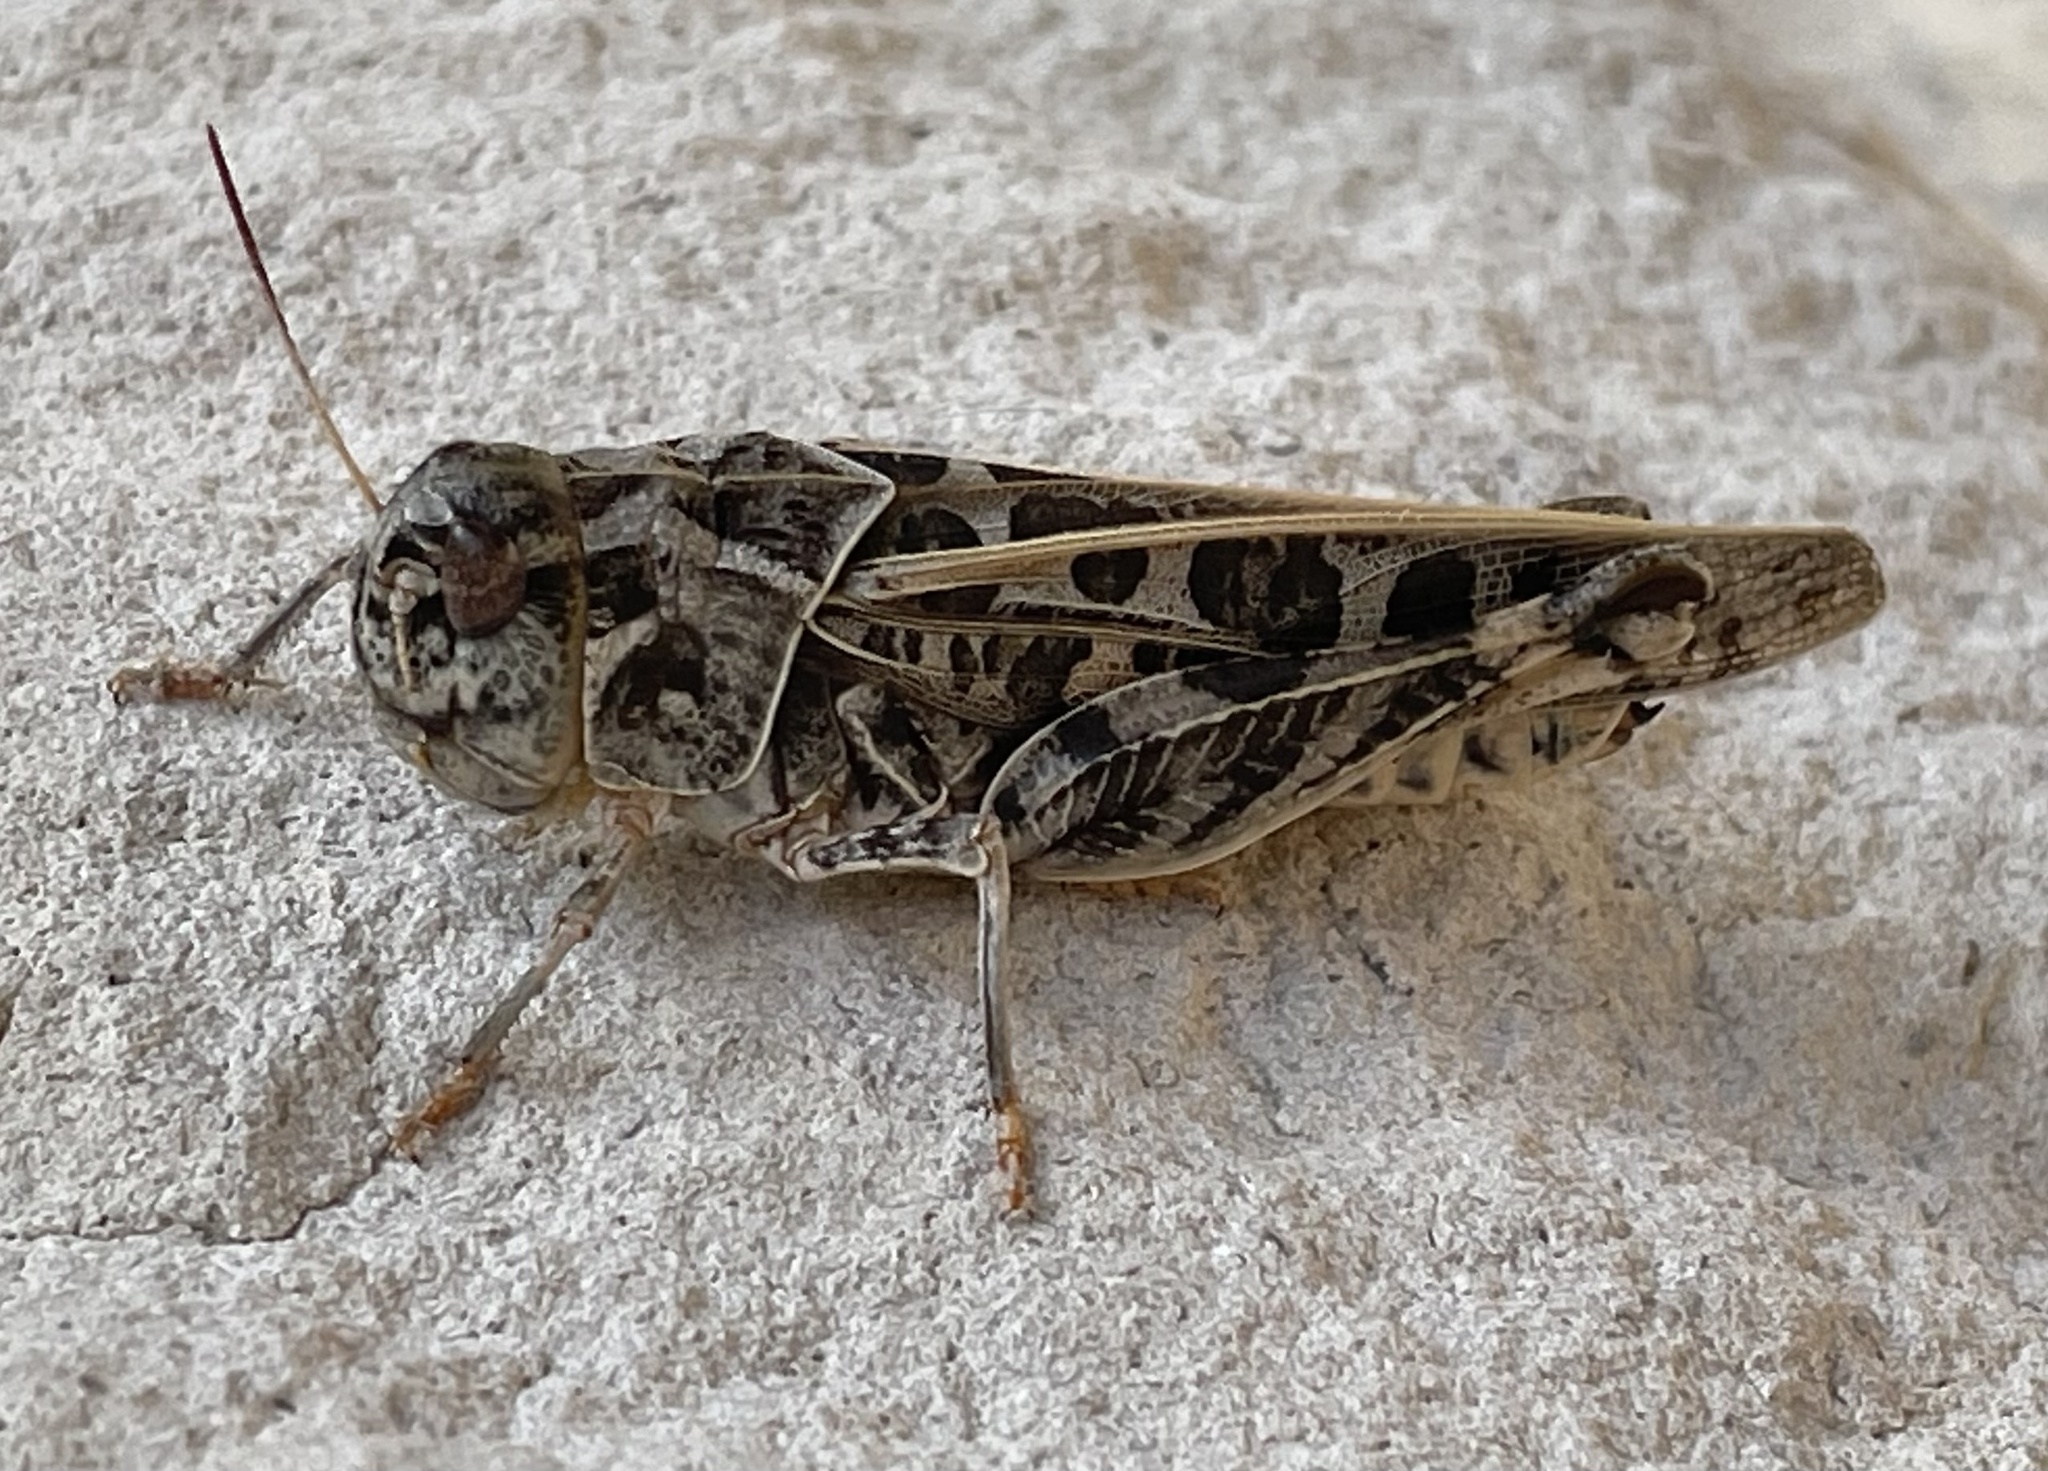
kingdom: Animalia
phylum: Arthropoda
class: Insecta
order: Orthoptera
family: Acrididae
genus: Hippiscus
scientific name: Hippiscus ocelote
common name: Wrinkled grasshopper
